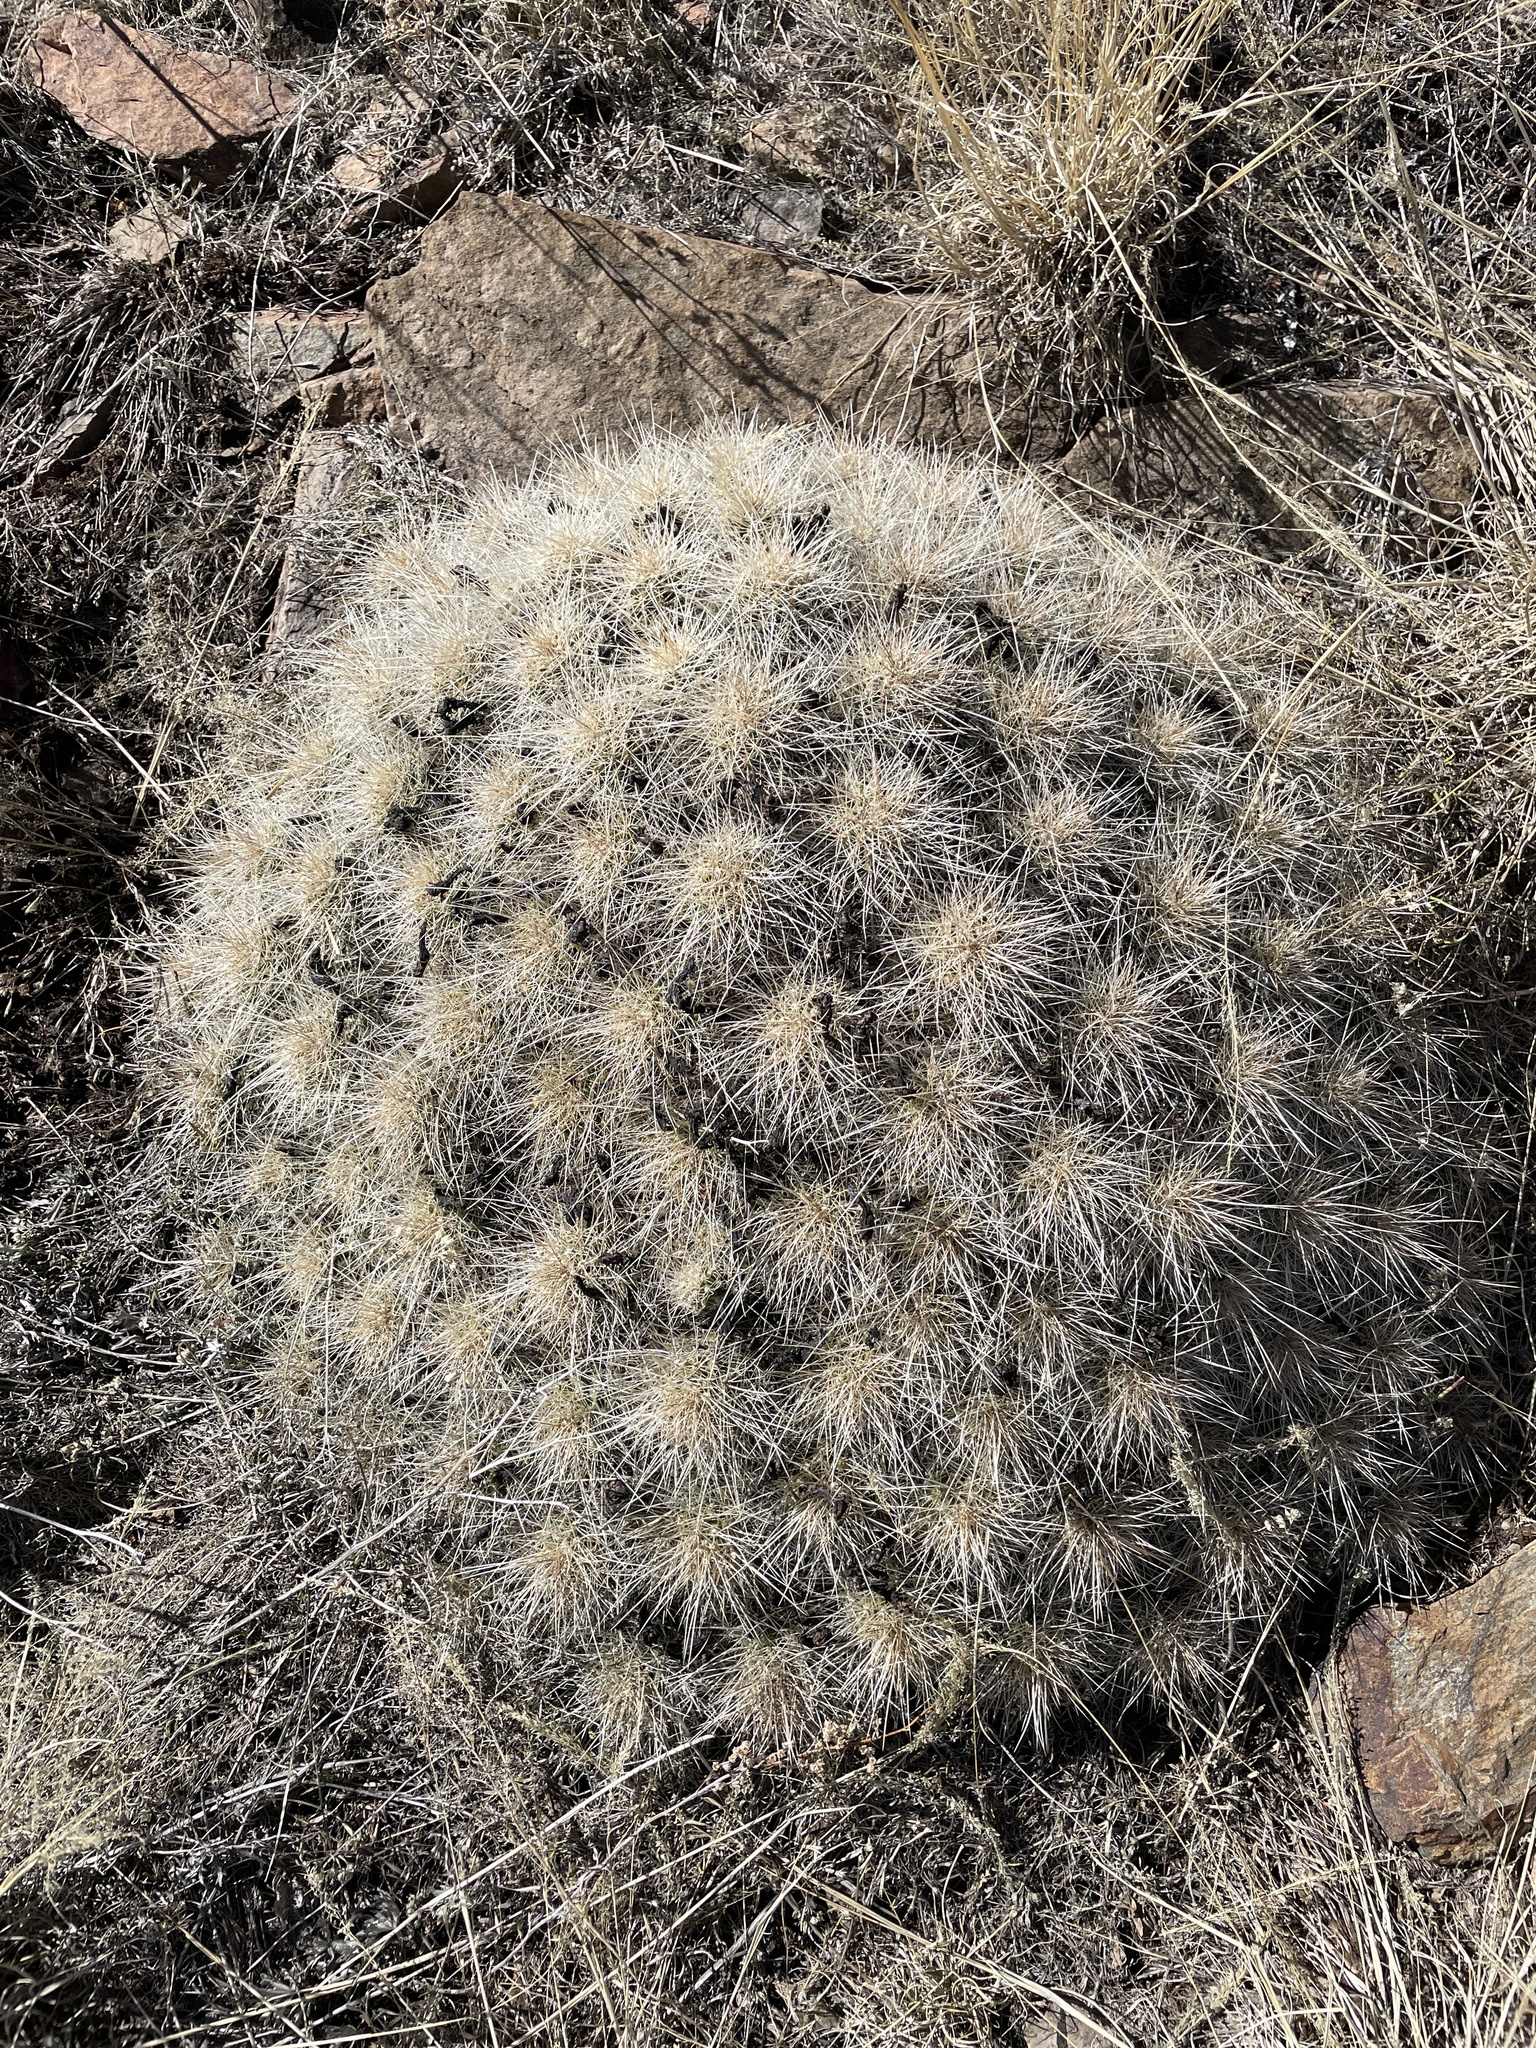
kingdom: Plantae
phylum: Tracheophyta
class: Magnoliopsida
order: Caryophyllales
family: Cactaceae
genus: Echinocereus
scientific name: Echinocereus coccineus
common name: Scarlet hedgehog cactus
